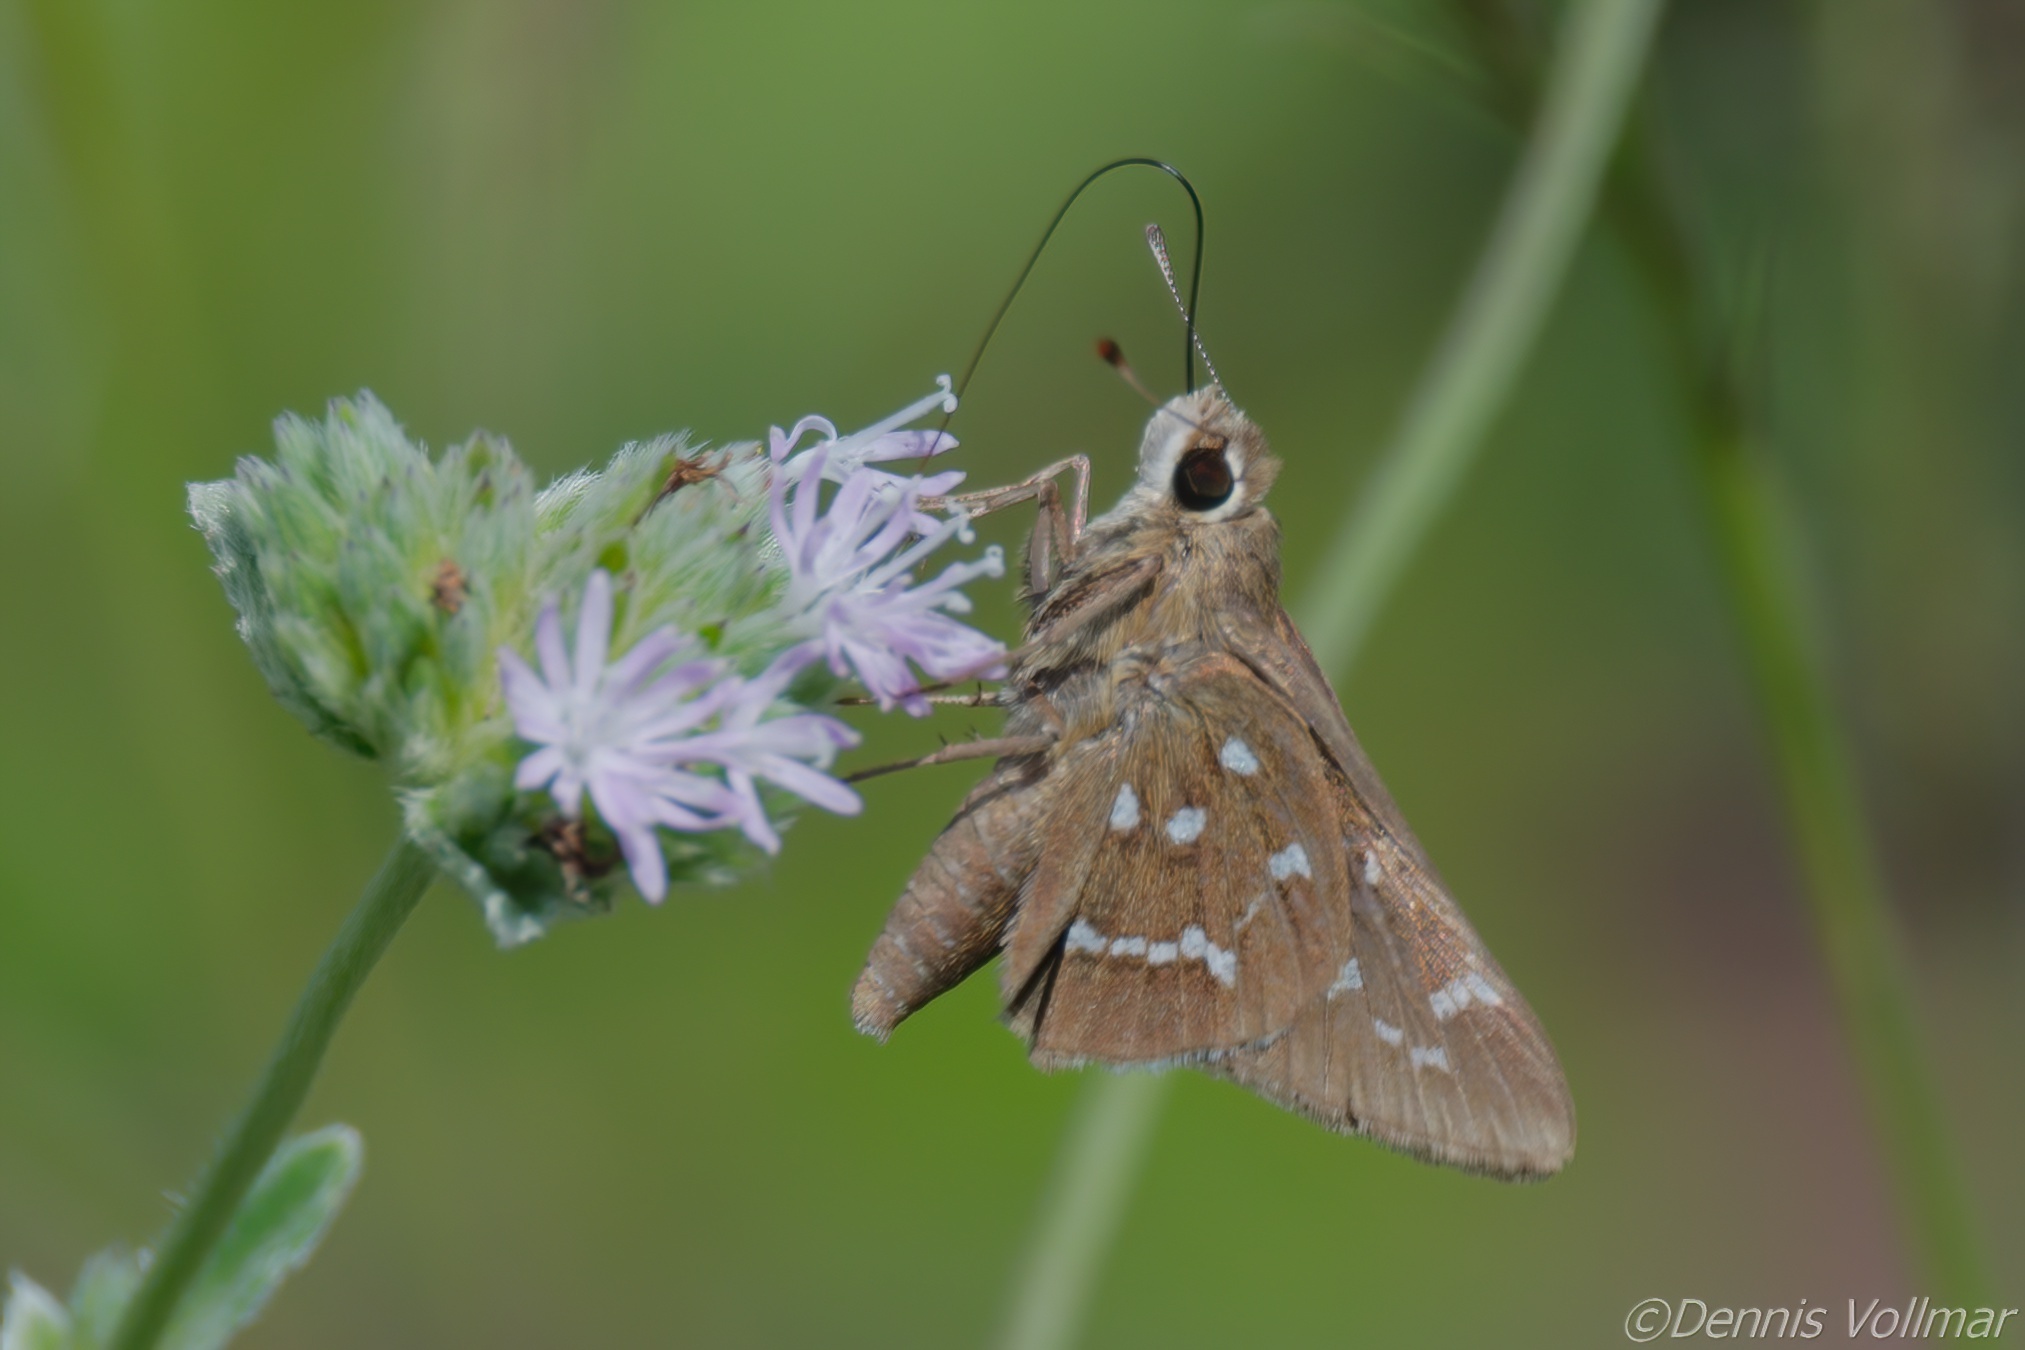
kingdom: Animalia
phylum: Arthropoda
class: Insecta
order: Lepidoptera
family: Hesperiidae
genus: Atrytonopsis
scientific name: Atrytonopsis loammi
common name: Loammi skipper
